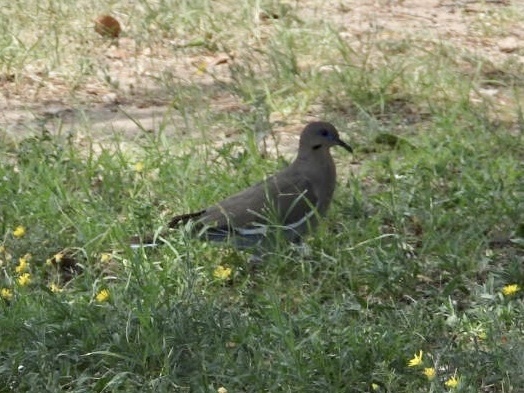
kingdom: Animalia
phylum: Chordata
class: Aves
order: Columbiformes
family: Columbidae
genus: Zenaida
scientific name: Zenaida asiatica
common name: White-winged dove
